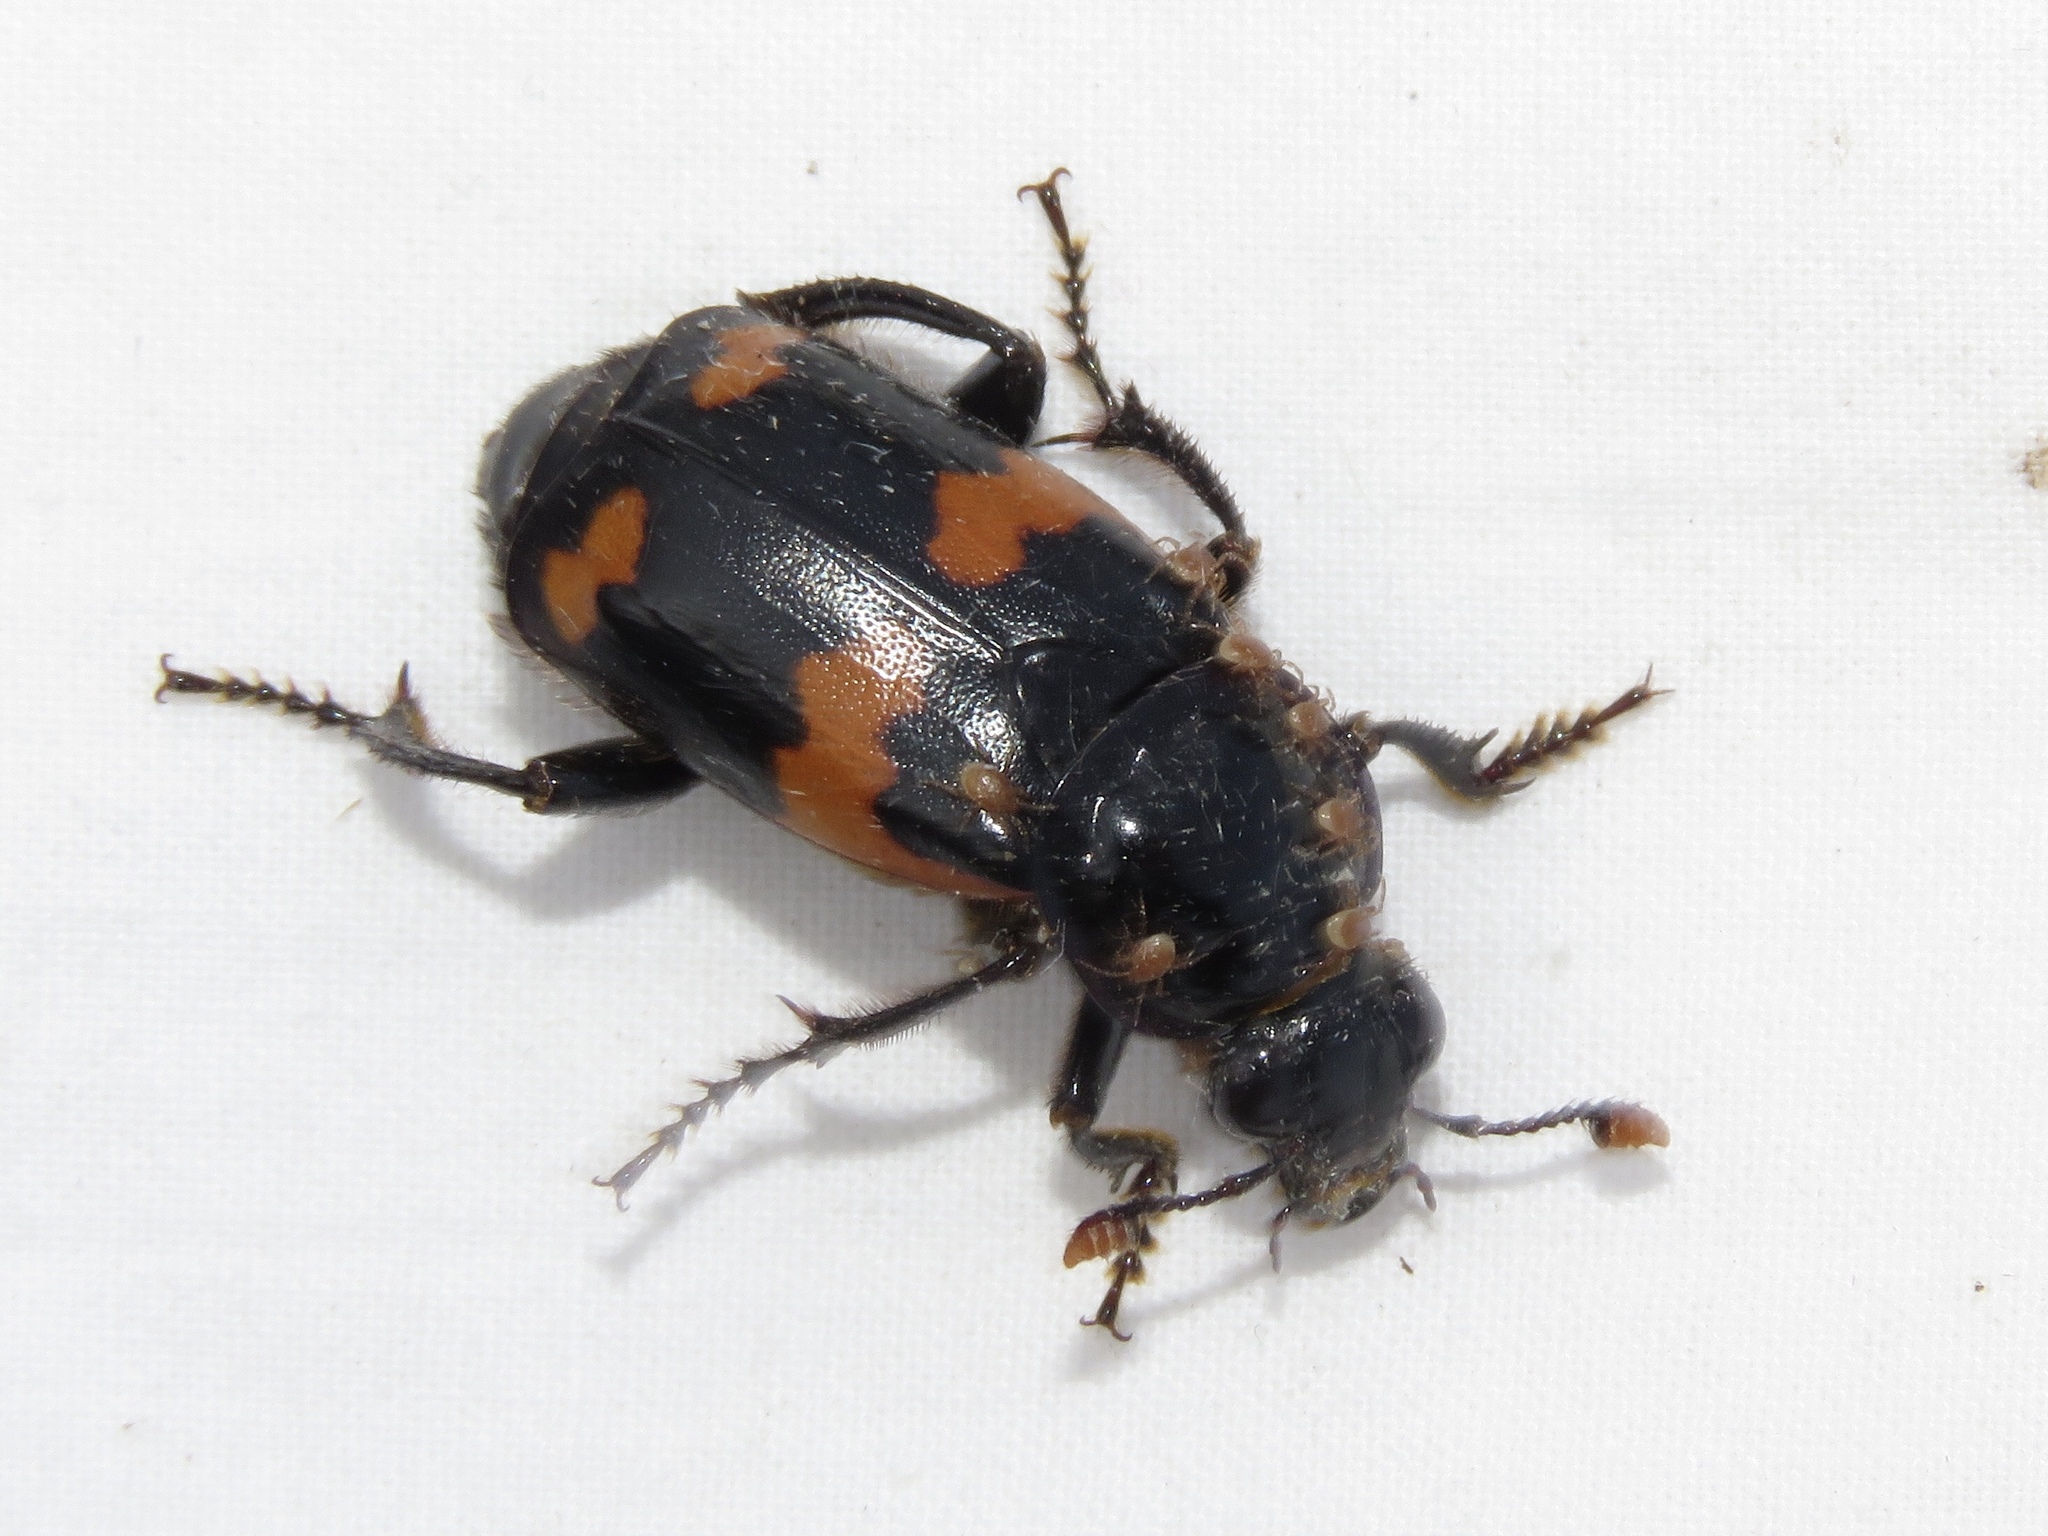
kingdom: Animalia
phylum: Arthropoda
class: Insecta
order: Coleoptera
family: Staphylinidae
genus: Nicrophorus
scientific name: Nicrophorus sayi
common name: Say's burying beetle
